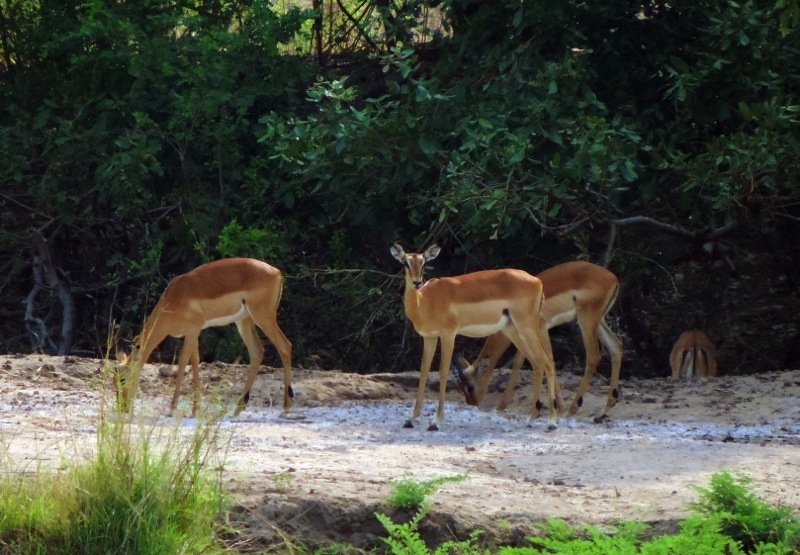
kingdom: Animalia
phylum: Chordata
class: Mammalia
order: Artiodactyla
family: Bovidae
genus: Aepyceros
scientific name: Aepyceros melampus
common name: Impala
